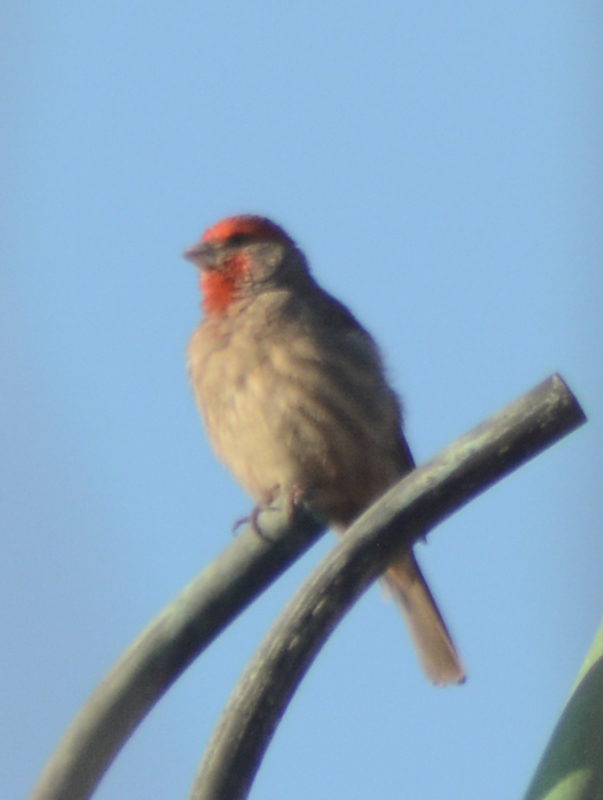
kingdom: Animalia
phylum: Chordata
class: Aves
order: Passeriformes
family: Fringillidae
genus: Haemorhous
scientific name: Haemorhous mexicanus
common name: House finch
